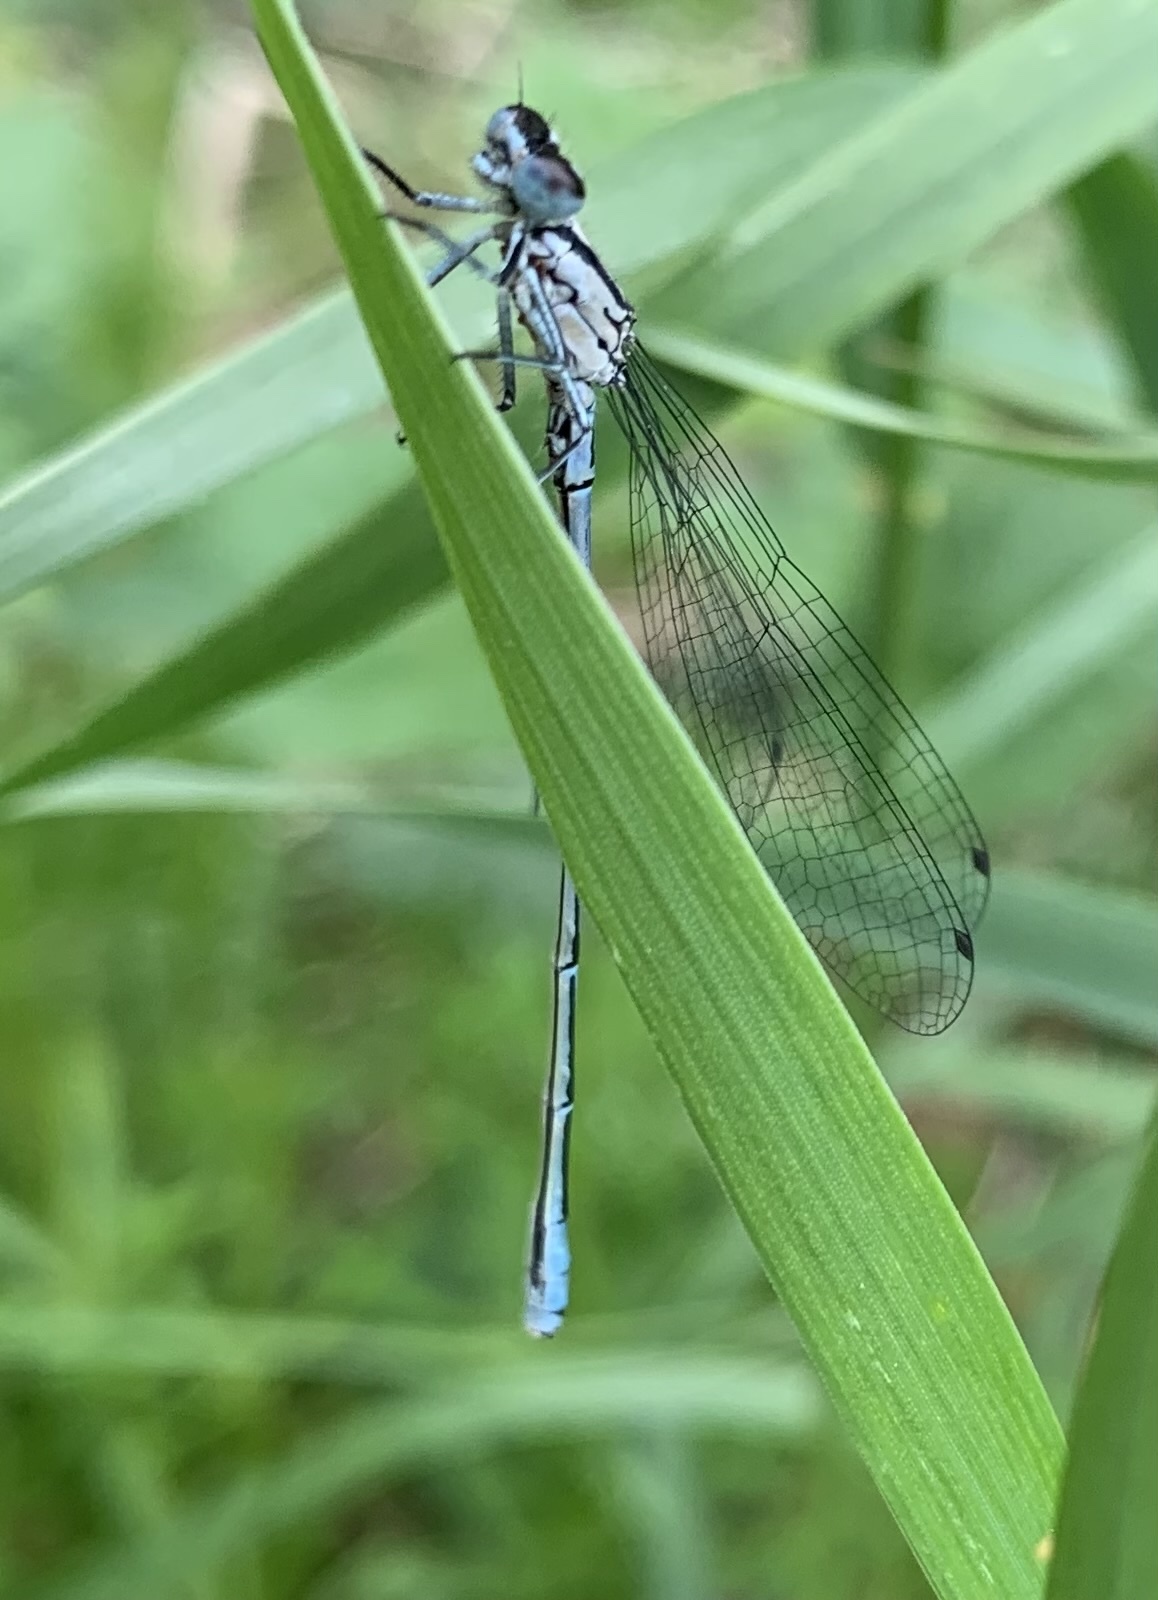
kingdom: Animalia
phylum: Arthropoda
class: Insecta
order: Odonata
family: Coenagrionidae
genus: Coenagrion
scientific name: Coenagrion puella
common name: Azure damselfly
